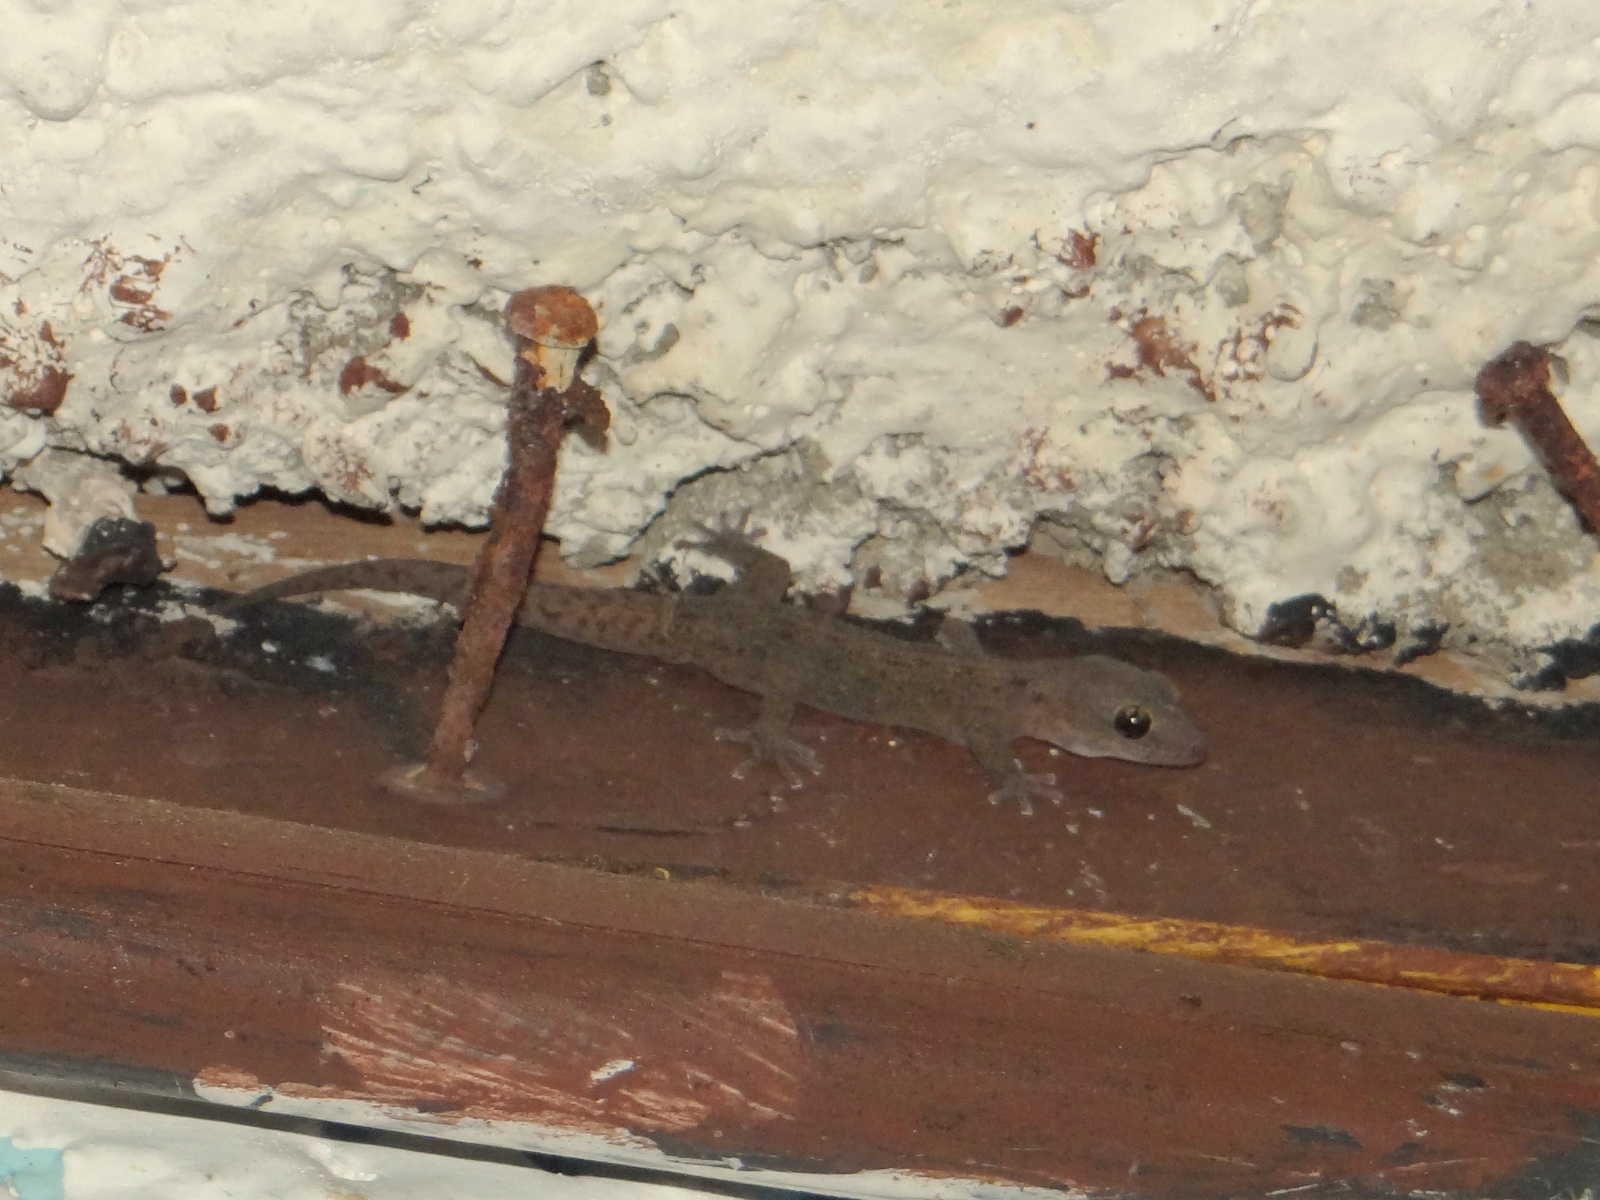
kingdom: Animalia
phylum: Chordata
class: Squamata
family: Phyllodactylidae
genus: Phyllodactylus
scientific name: Phyllodactylus reissii
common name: Peters' leaf-toed gecko
